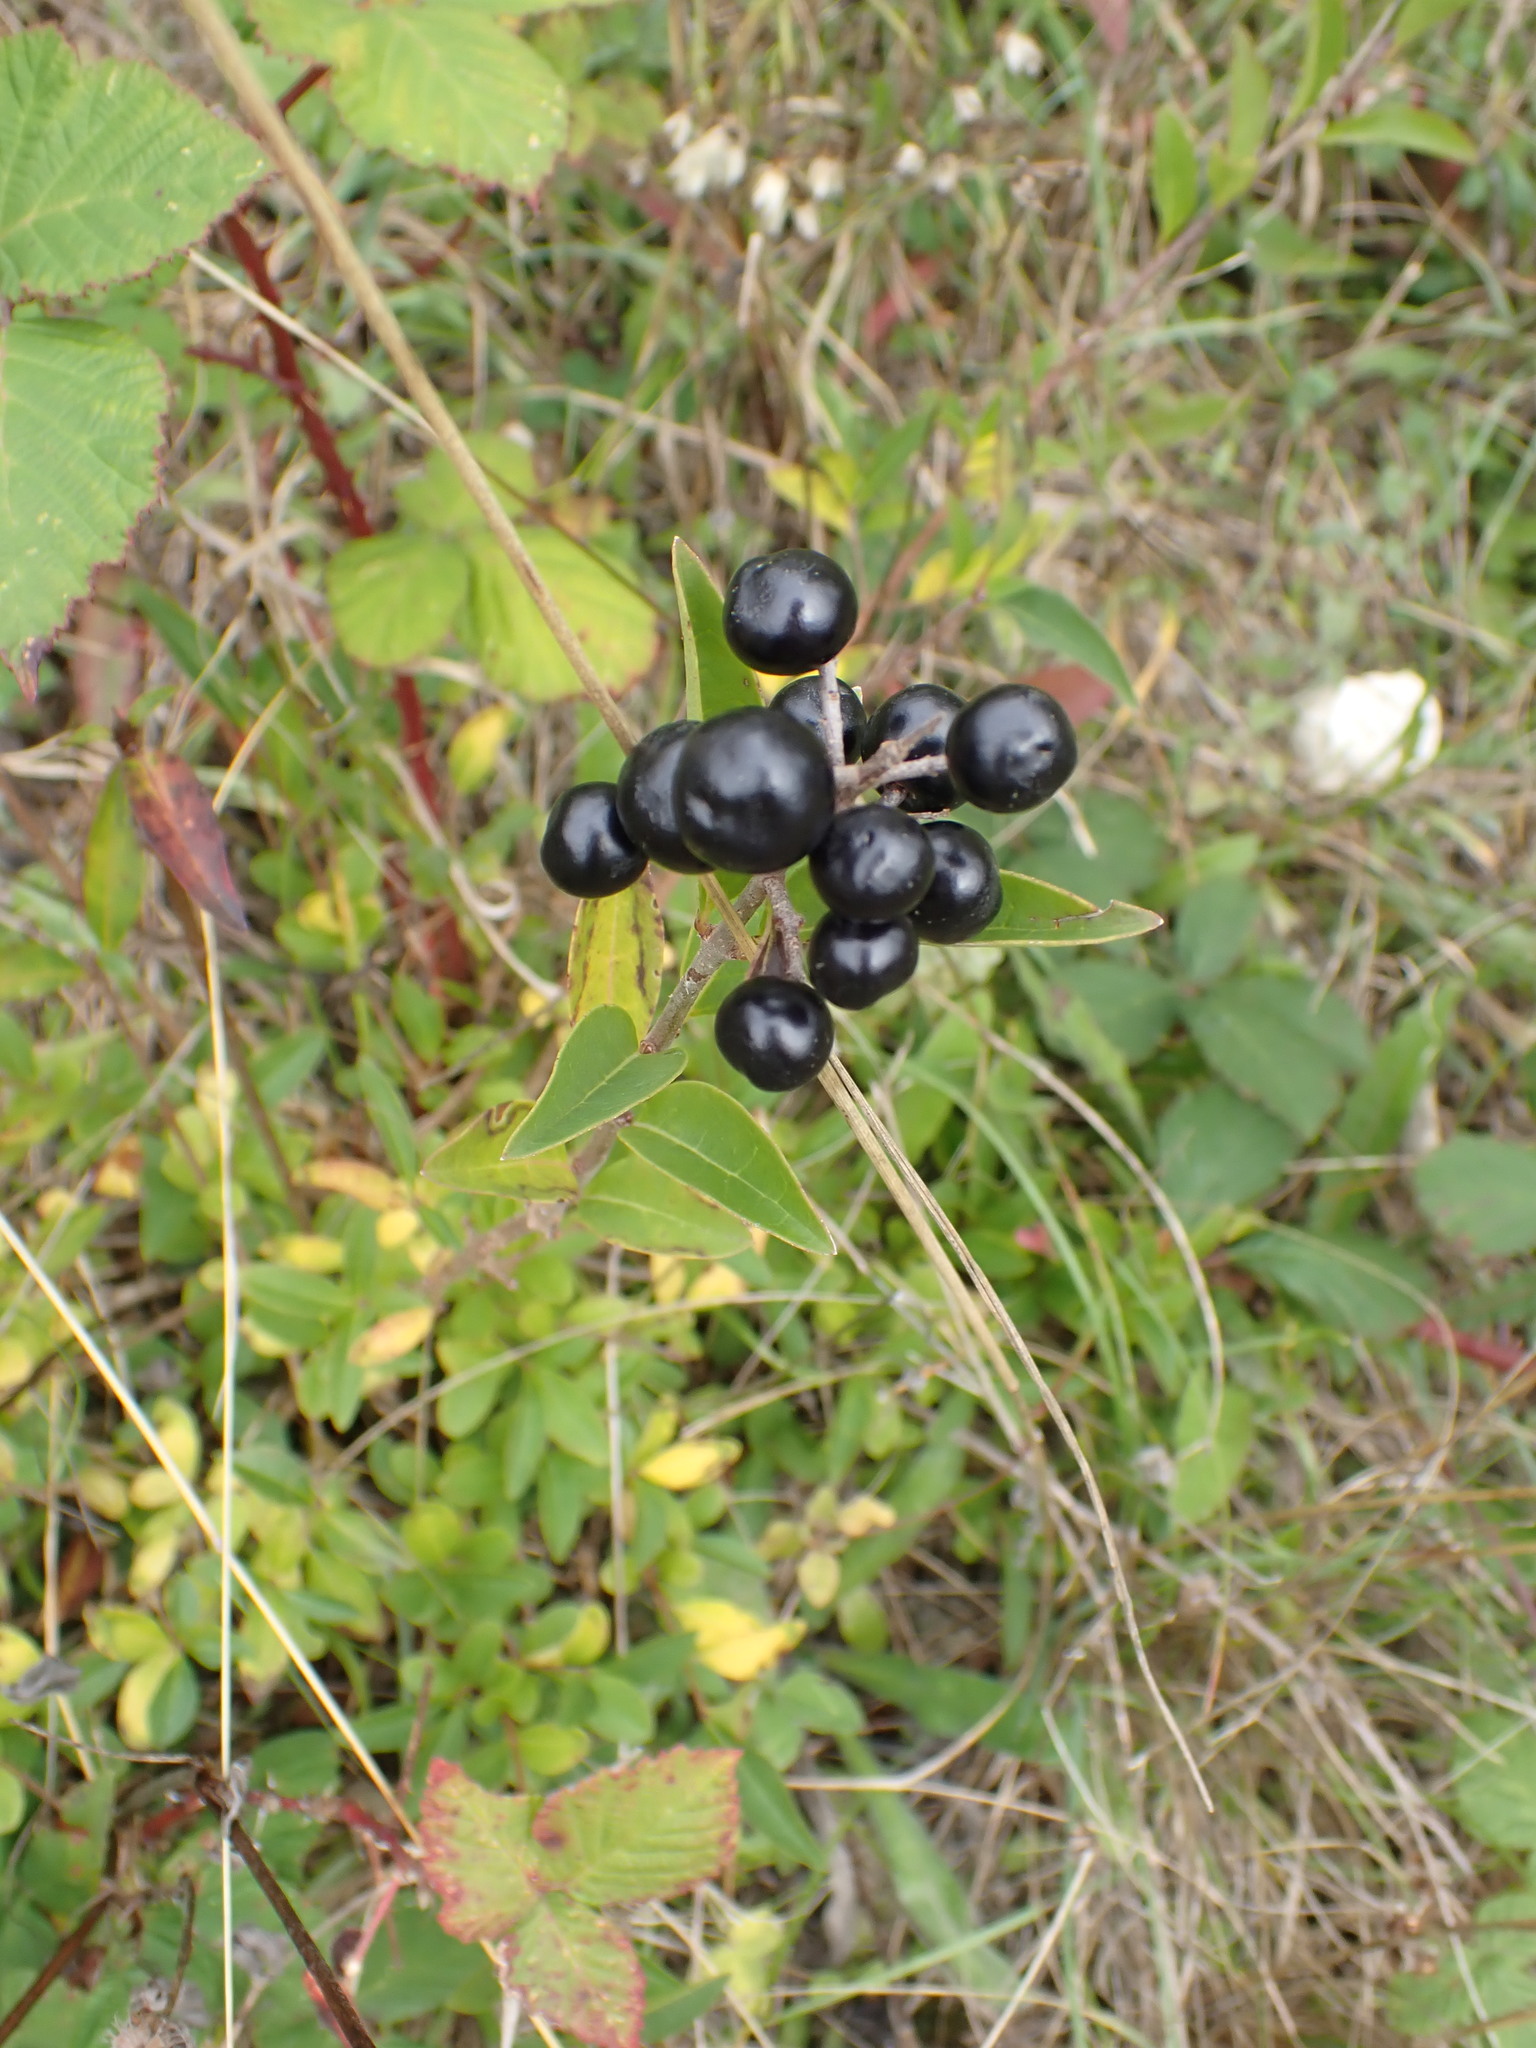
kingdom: Plantae
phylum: Tracheophyta
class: Magnoliopsida
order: Lamiales
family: Oleaceae
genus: Ligustrum
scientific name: Ligustrum vulgare
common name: Wild privet
